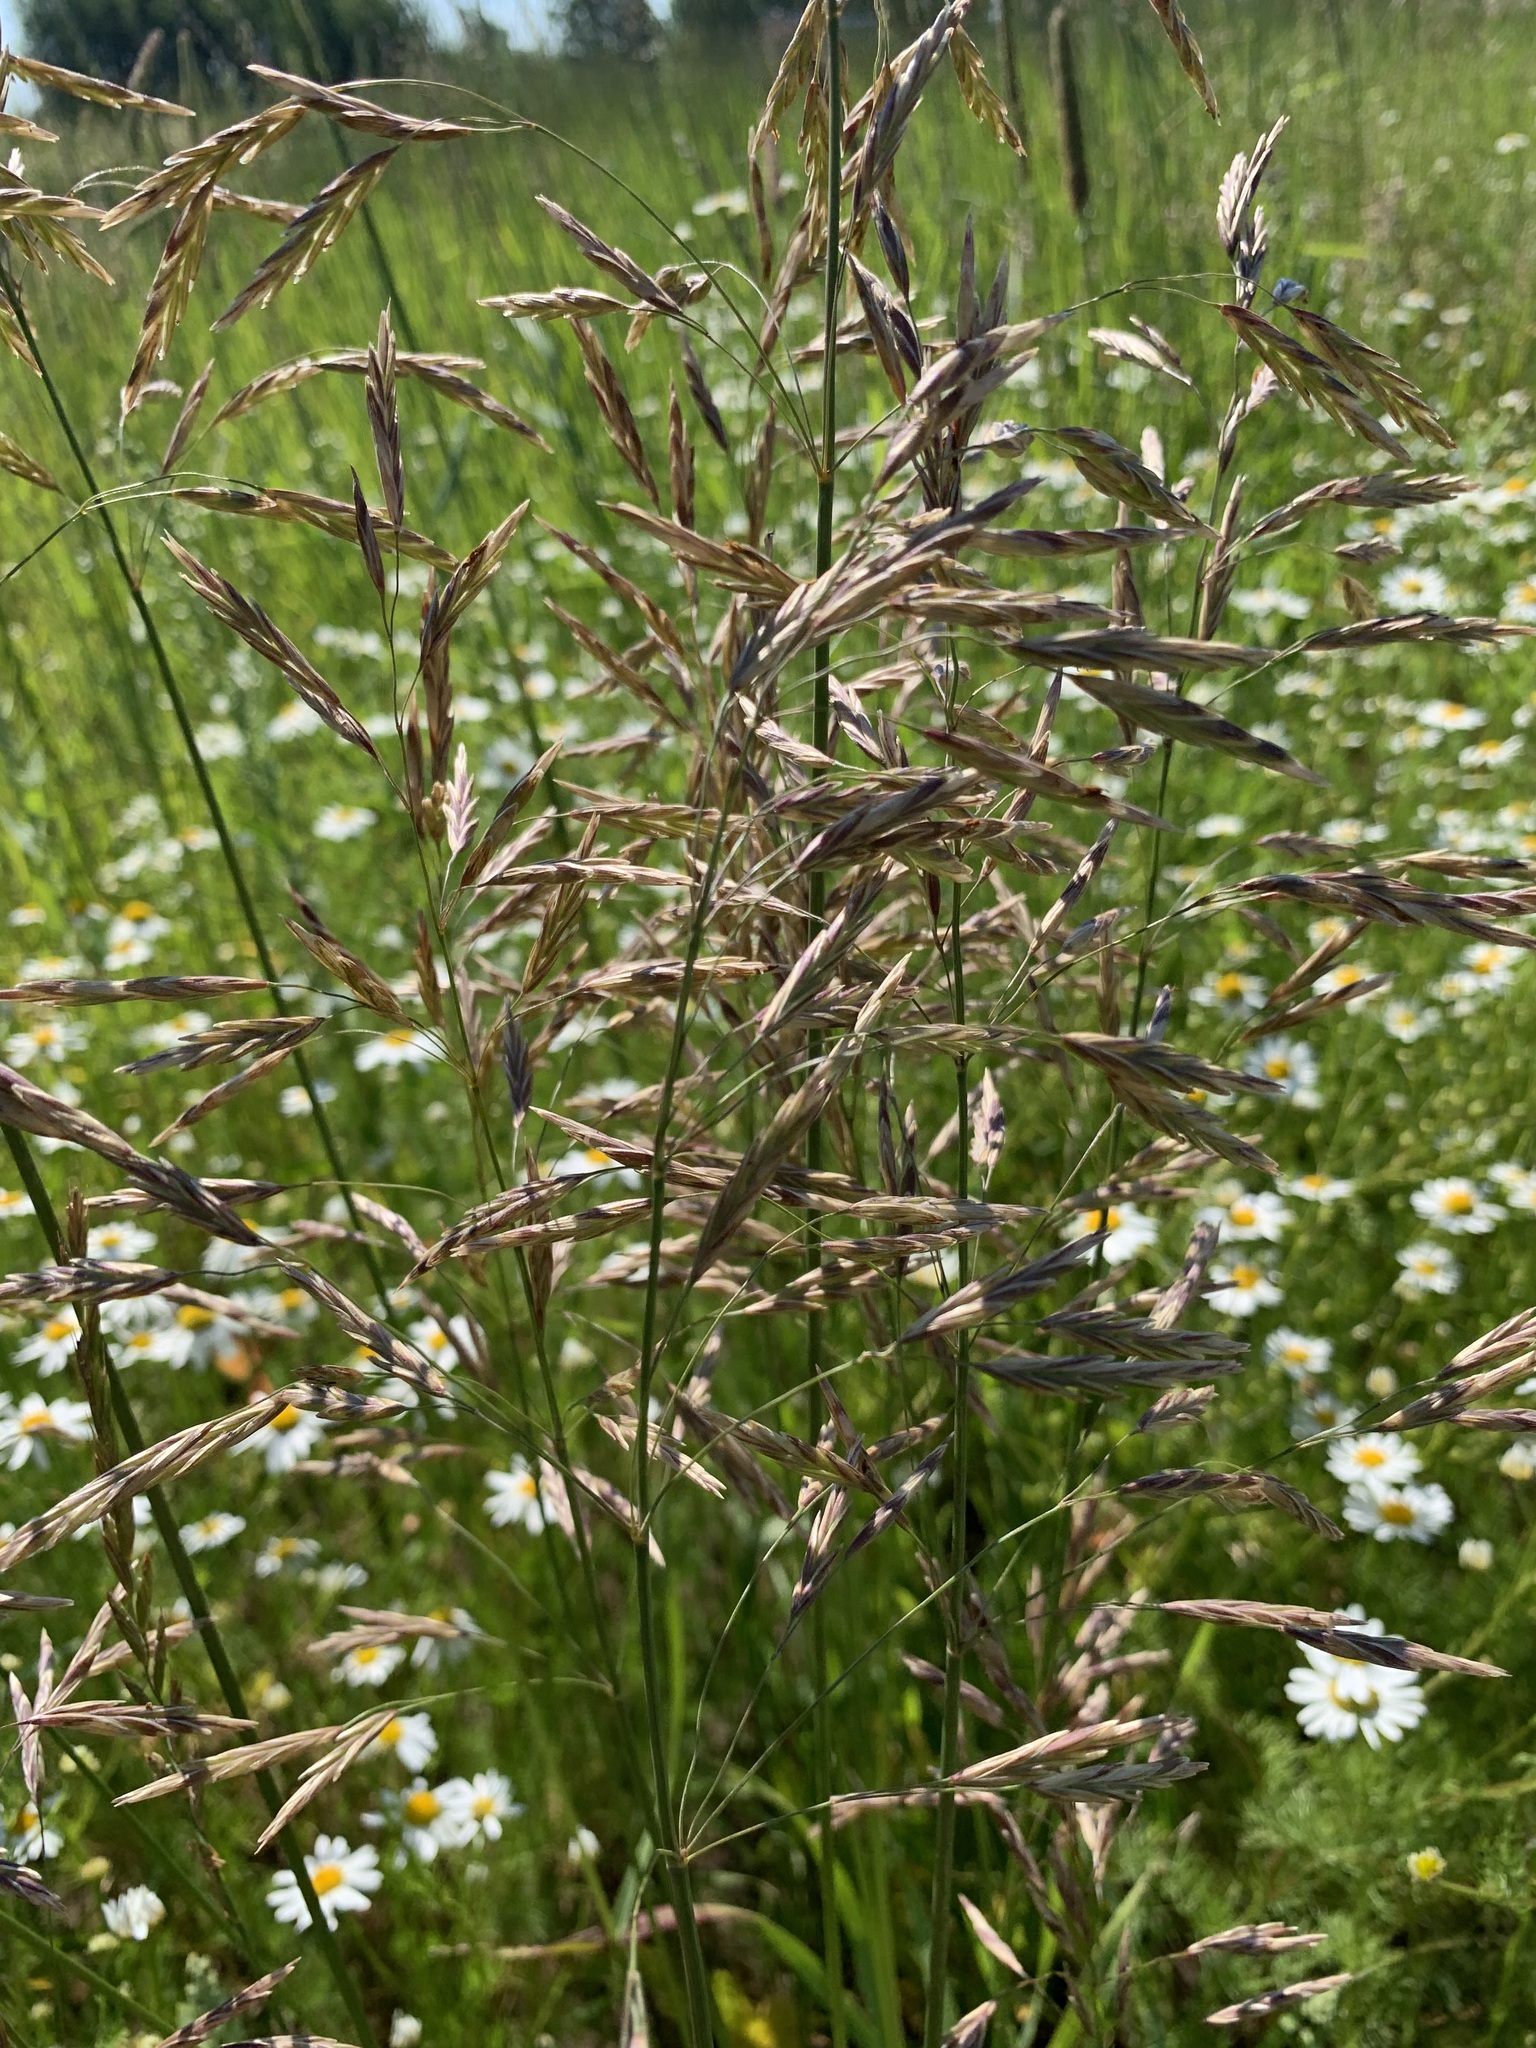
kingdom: Plantae
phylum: Tracheophyta
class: Liliopsida
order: Poales
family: Poaceae
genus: Bromus
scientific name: Bromus inermis
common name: Smooth brome
